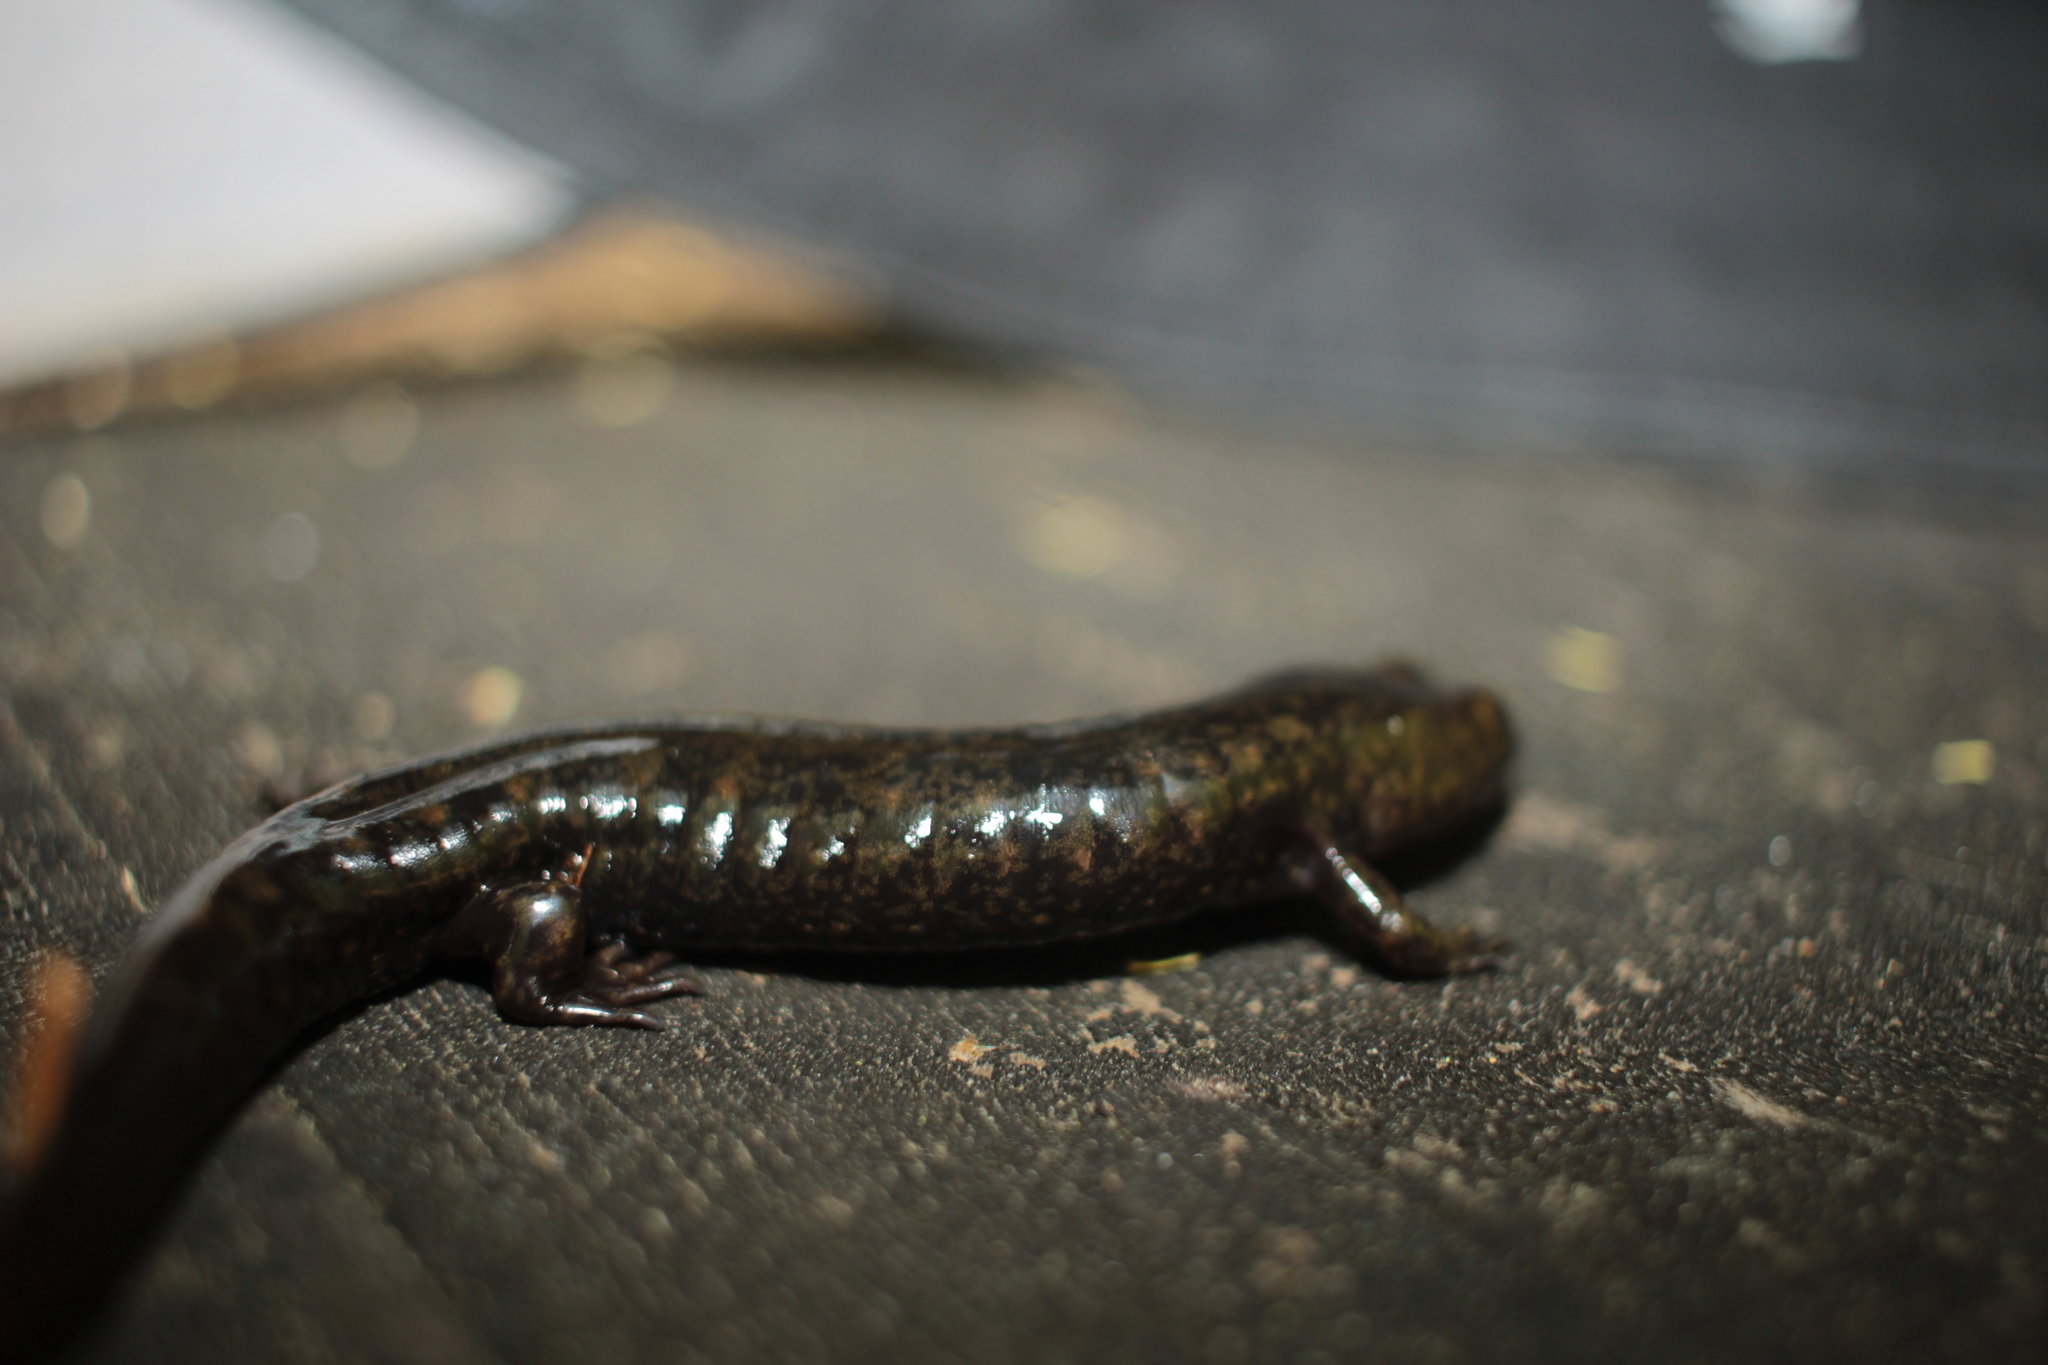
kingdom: Animalia
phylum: Chordata
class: Amphibia
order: Caudata
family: Plethodontidae
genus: Desmognathus
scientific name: Desmognathus intermedius
